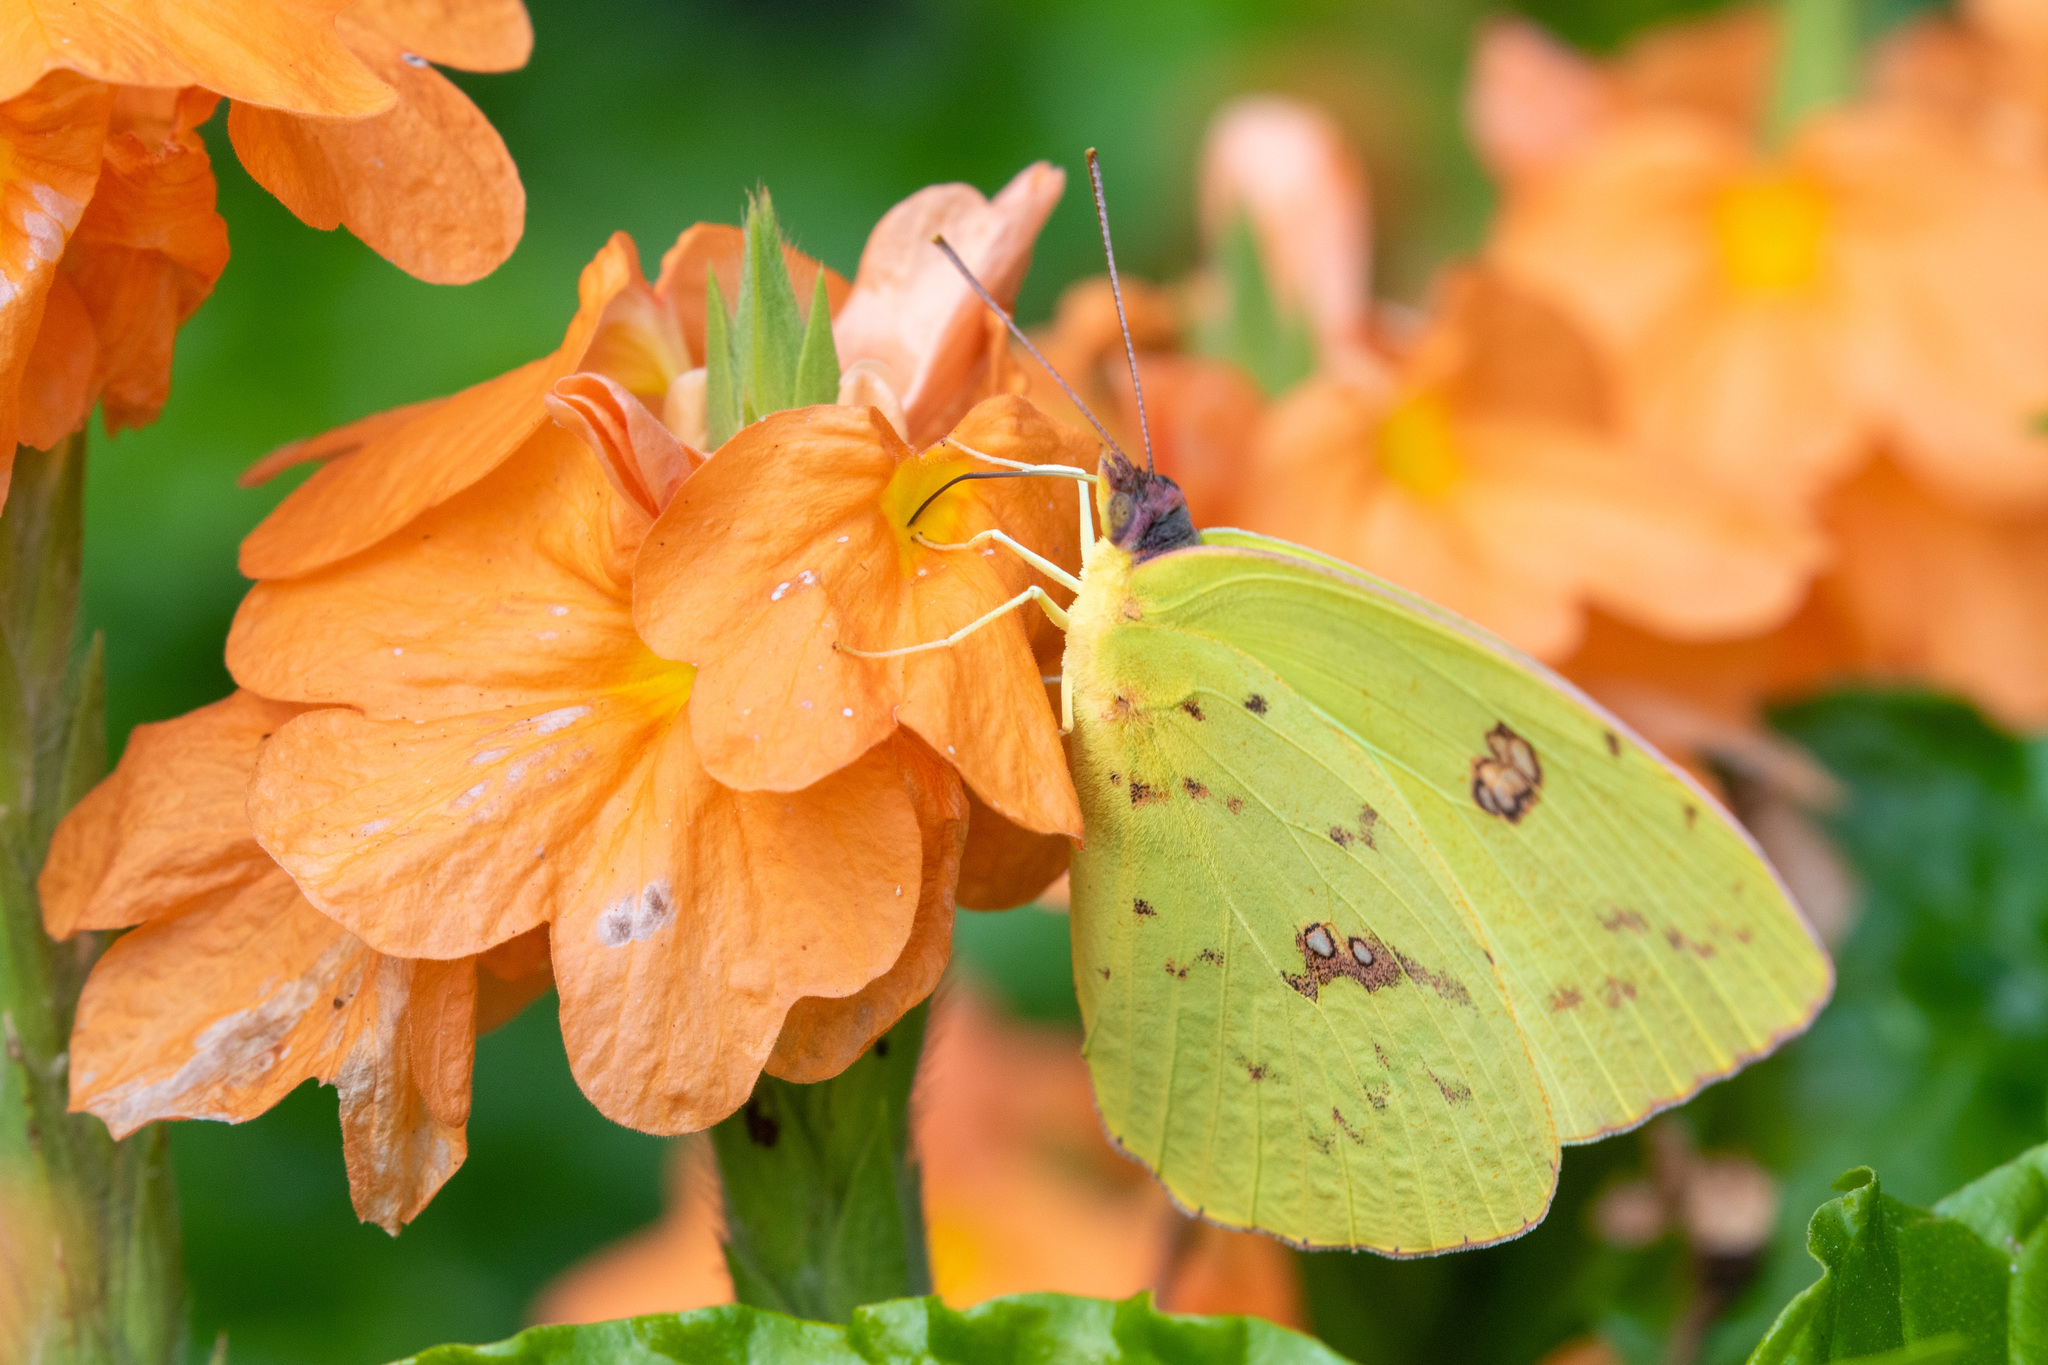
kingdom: Animalia
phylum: Arthropoda
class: Insecta
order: Lepidoptera
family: Pieridae
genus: Phoebis
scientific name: Phoebis sennae
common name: Cloudless sulphur
